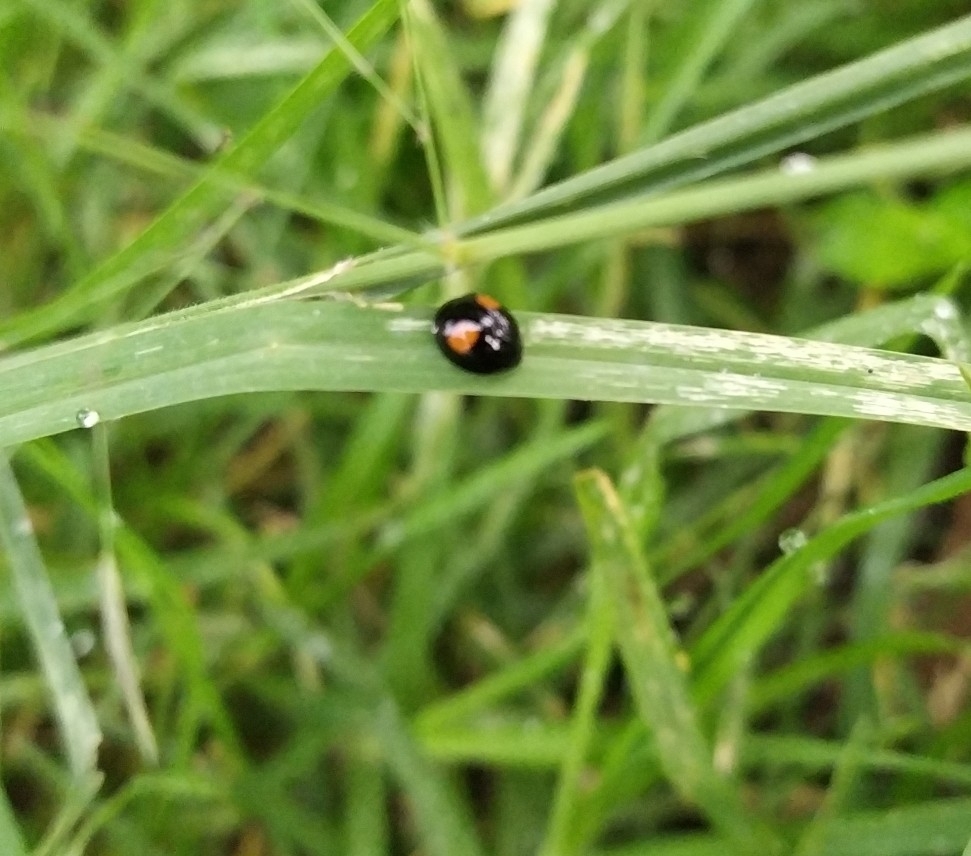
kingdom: Animalia
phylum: Arthropoda
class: Insecta
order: Coleoptera
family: Coccinellidae
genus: Chilocorus
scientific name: Chilocorus cacti
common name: Cactus lady beetle
